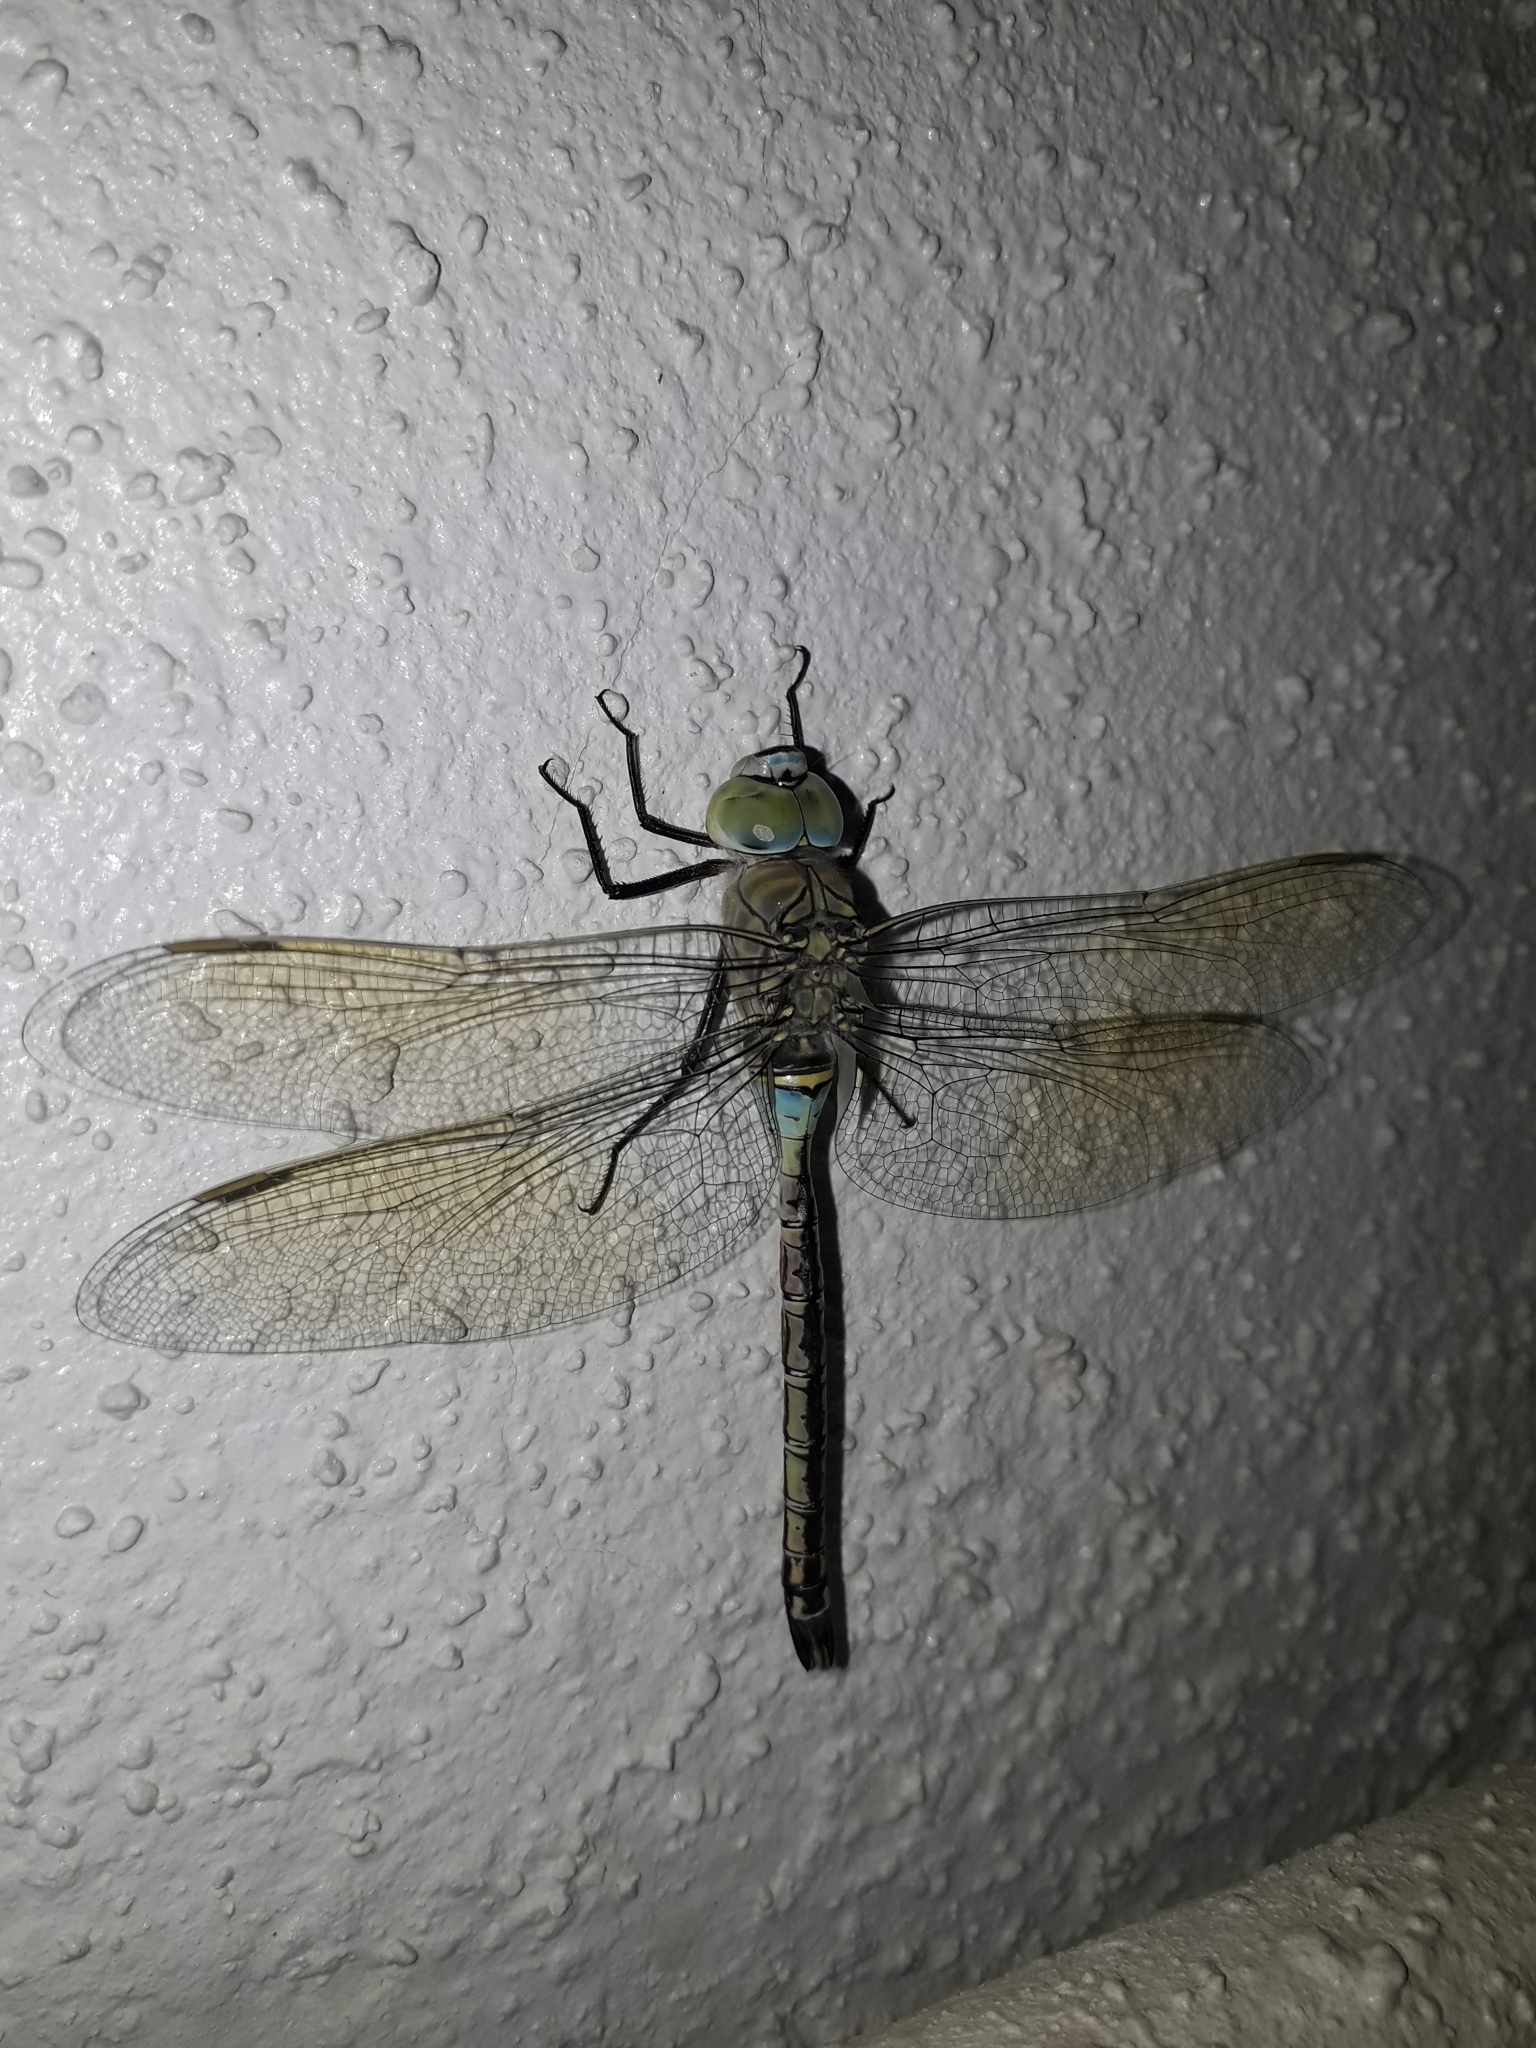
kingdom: Animalia
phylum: Arthropoda
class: Insecta
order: Odonata
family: Aeshnidae
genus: Anax
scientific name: Anax parthenope
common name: Lesser emperor
